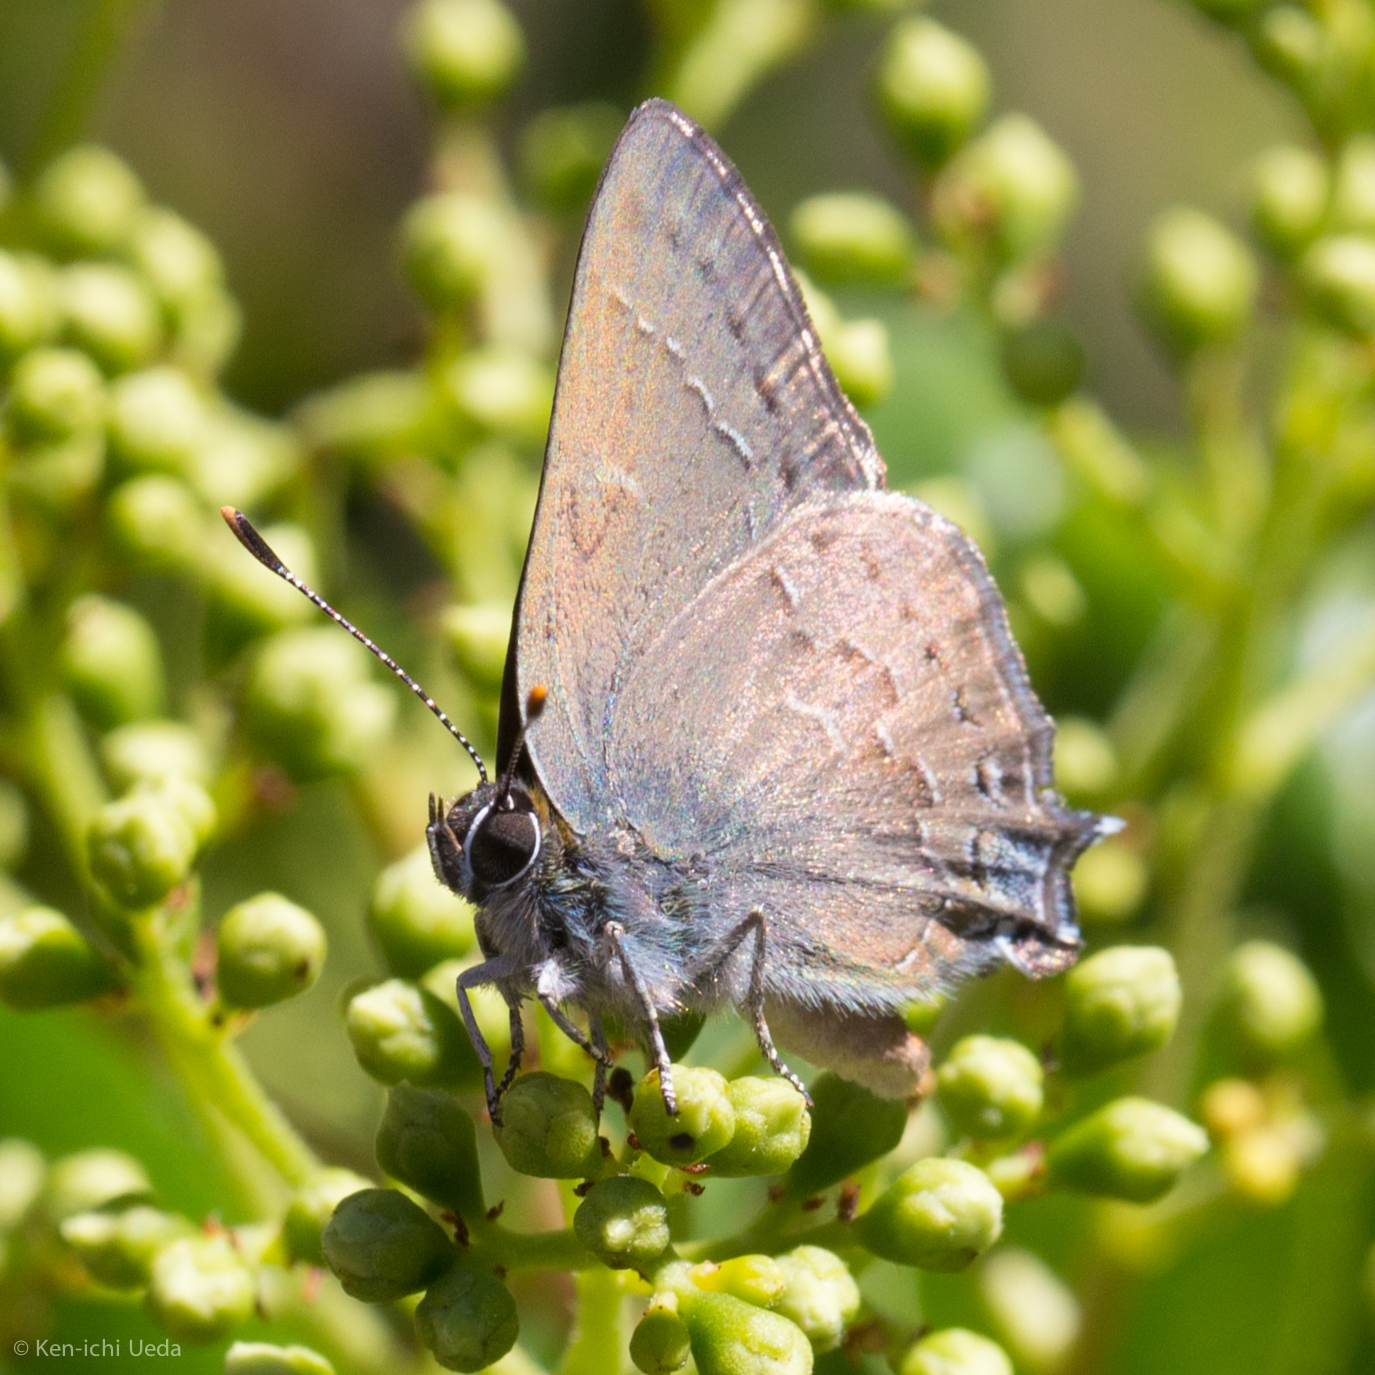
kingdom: Animalia
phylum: Arthropoda
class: Insecta
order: Lepidoptera
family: Lycaenidae
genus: Strymon
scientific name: Strymon saepium
